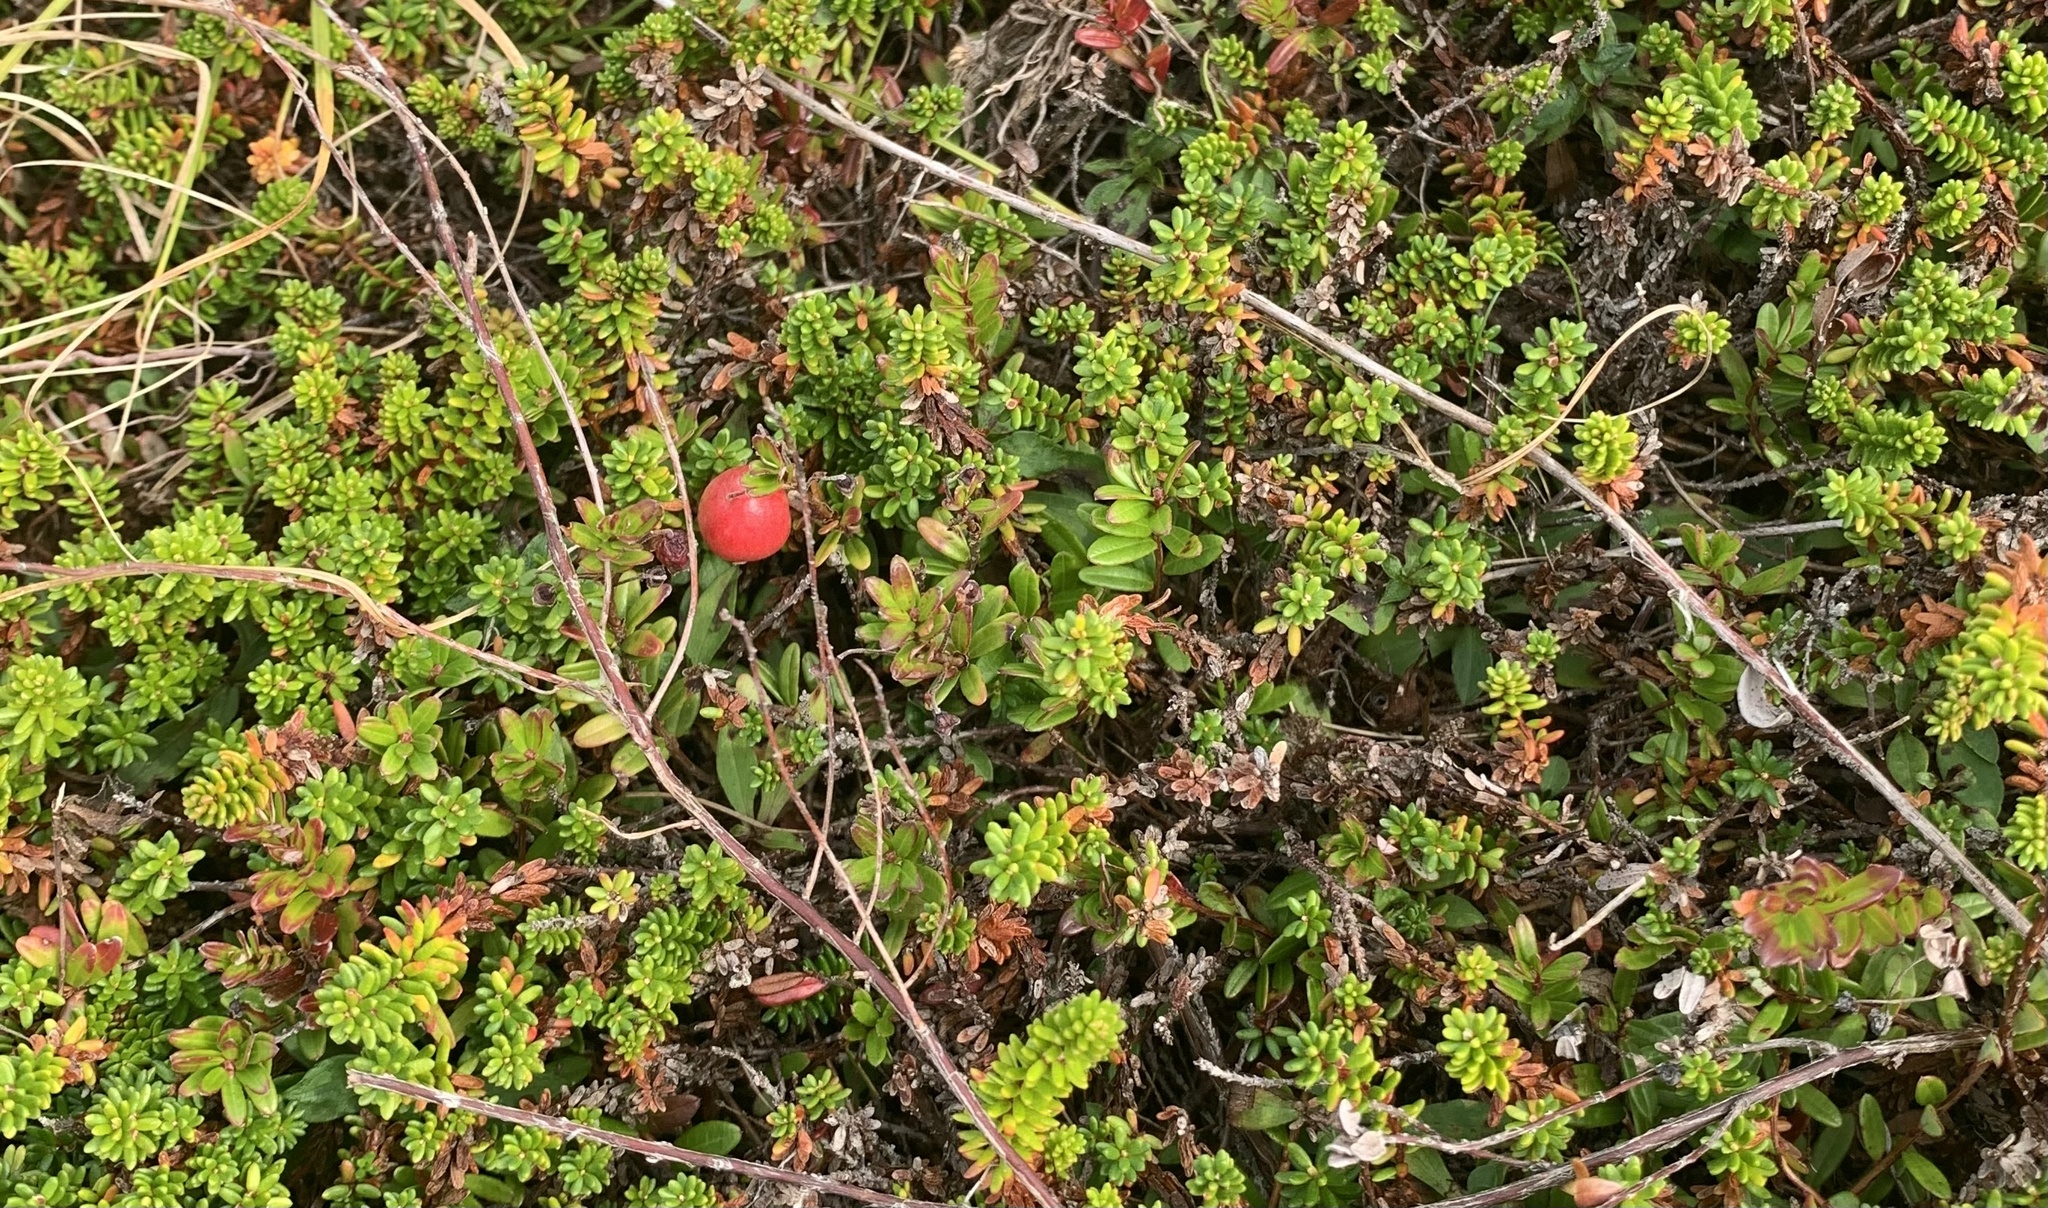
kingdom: Plantae
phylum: Tracheophyta
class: Magnoliopsida
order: Ericales
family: Ericaceae
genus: Vaccinium
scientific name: Vaccinium macrocarpon
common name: American cranberry
